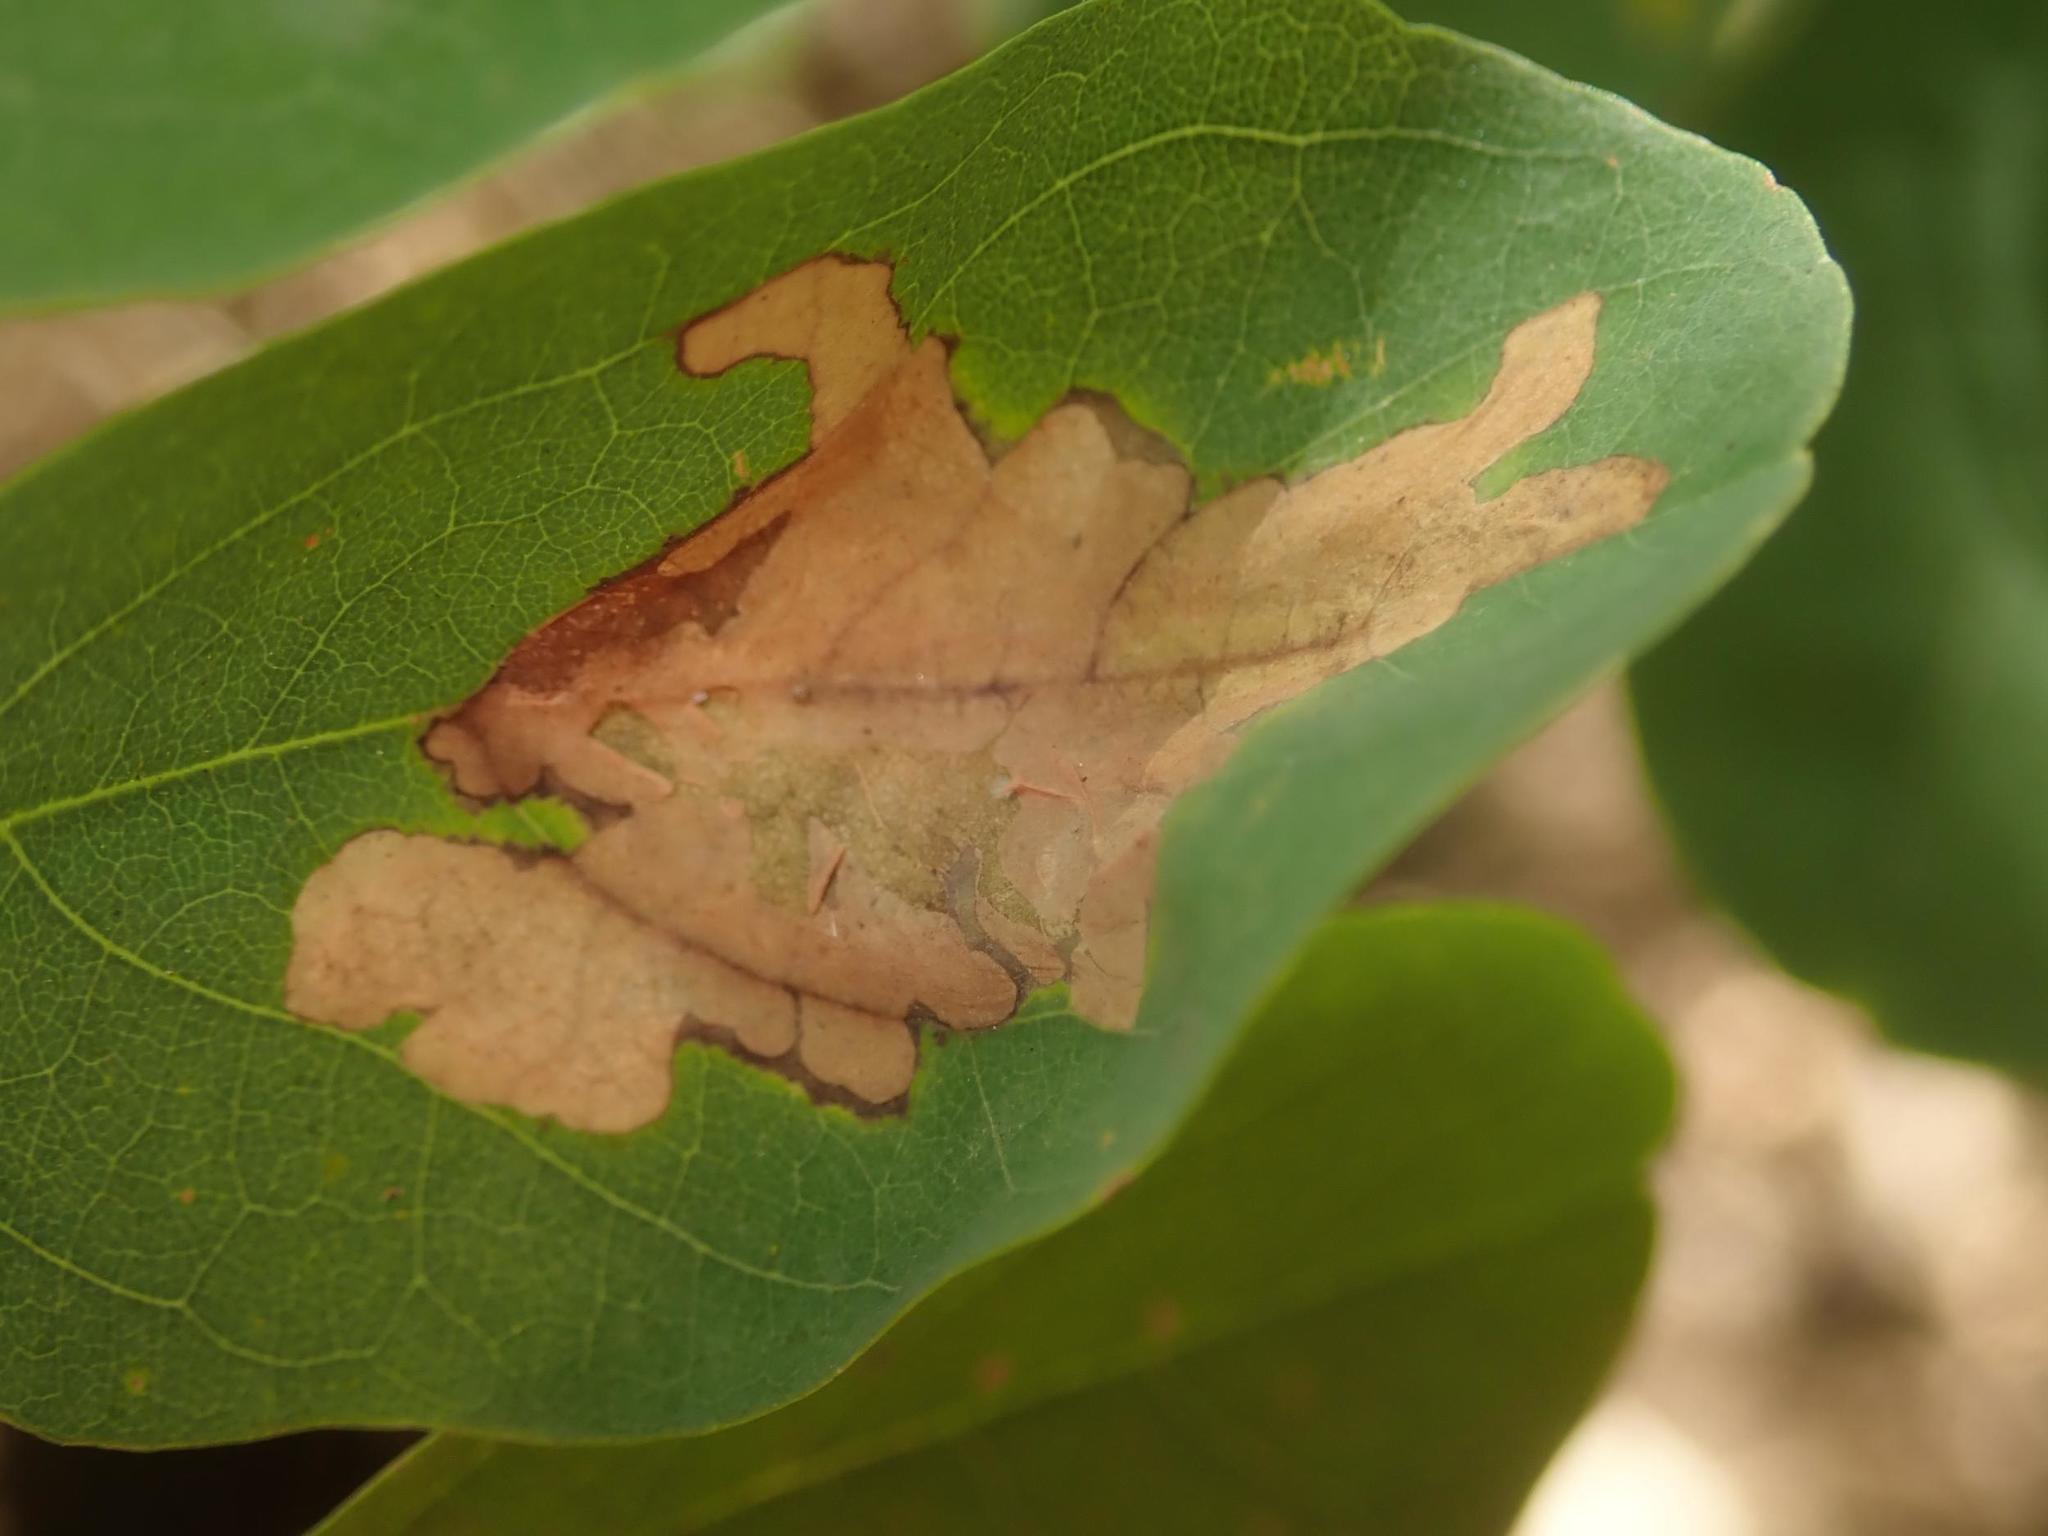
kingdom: Animalia
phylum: Arthropoda
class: Insecta
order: Lepidoptera
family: Gracillariidae
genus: Parectopa
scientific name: Parectopa robiniella
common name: Locust digitate leafminer
